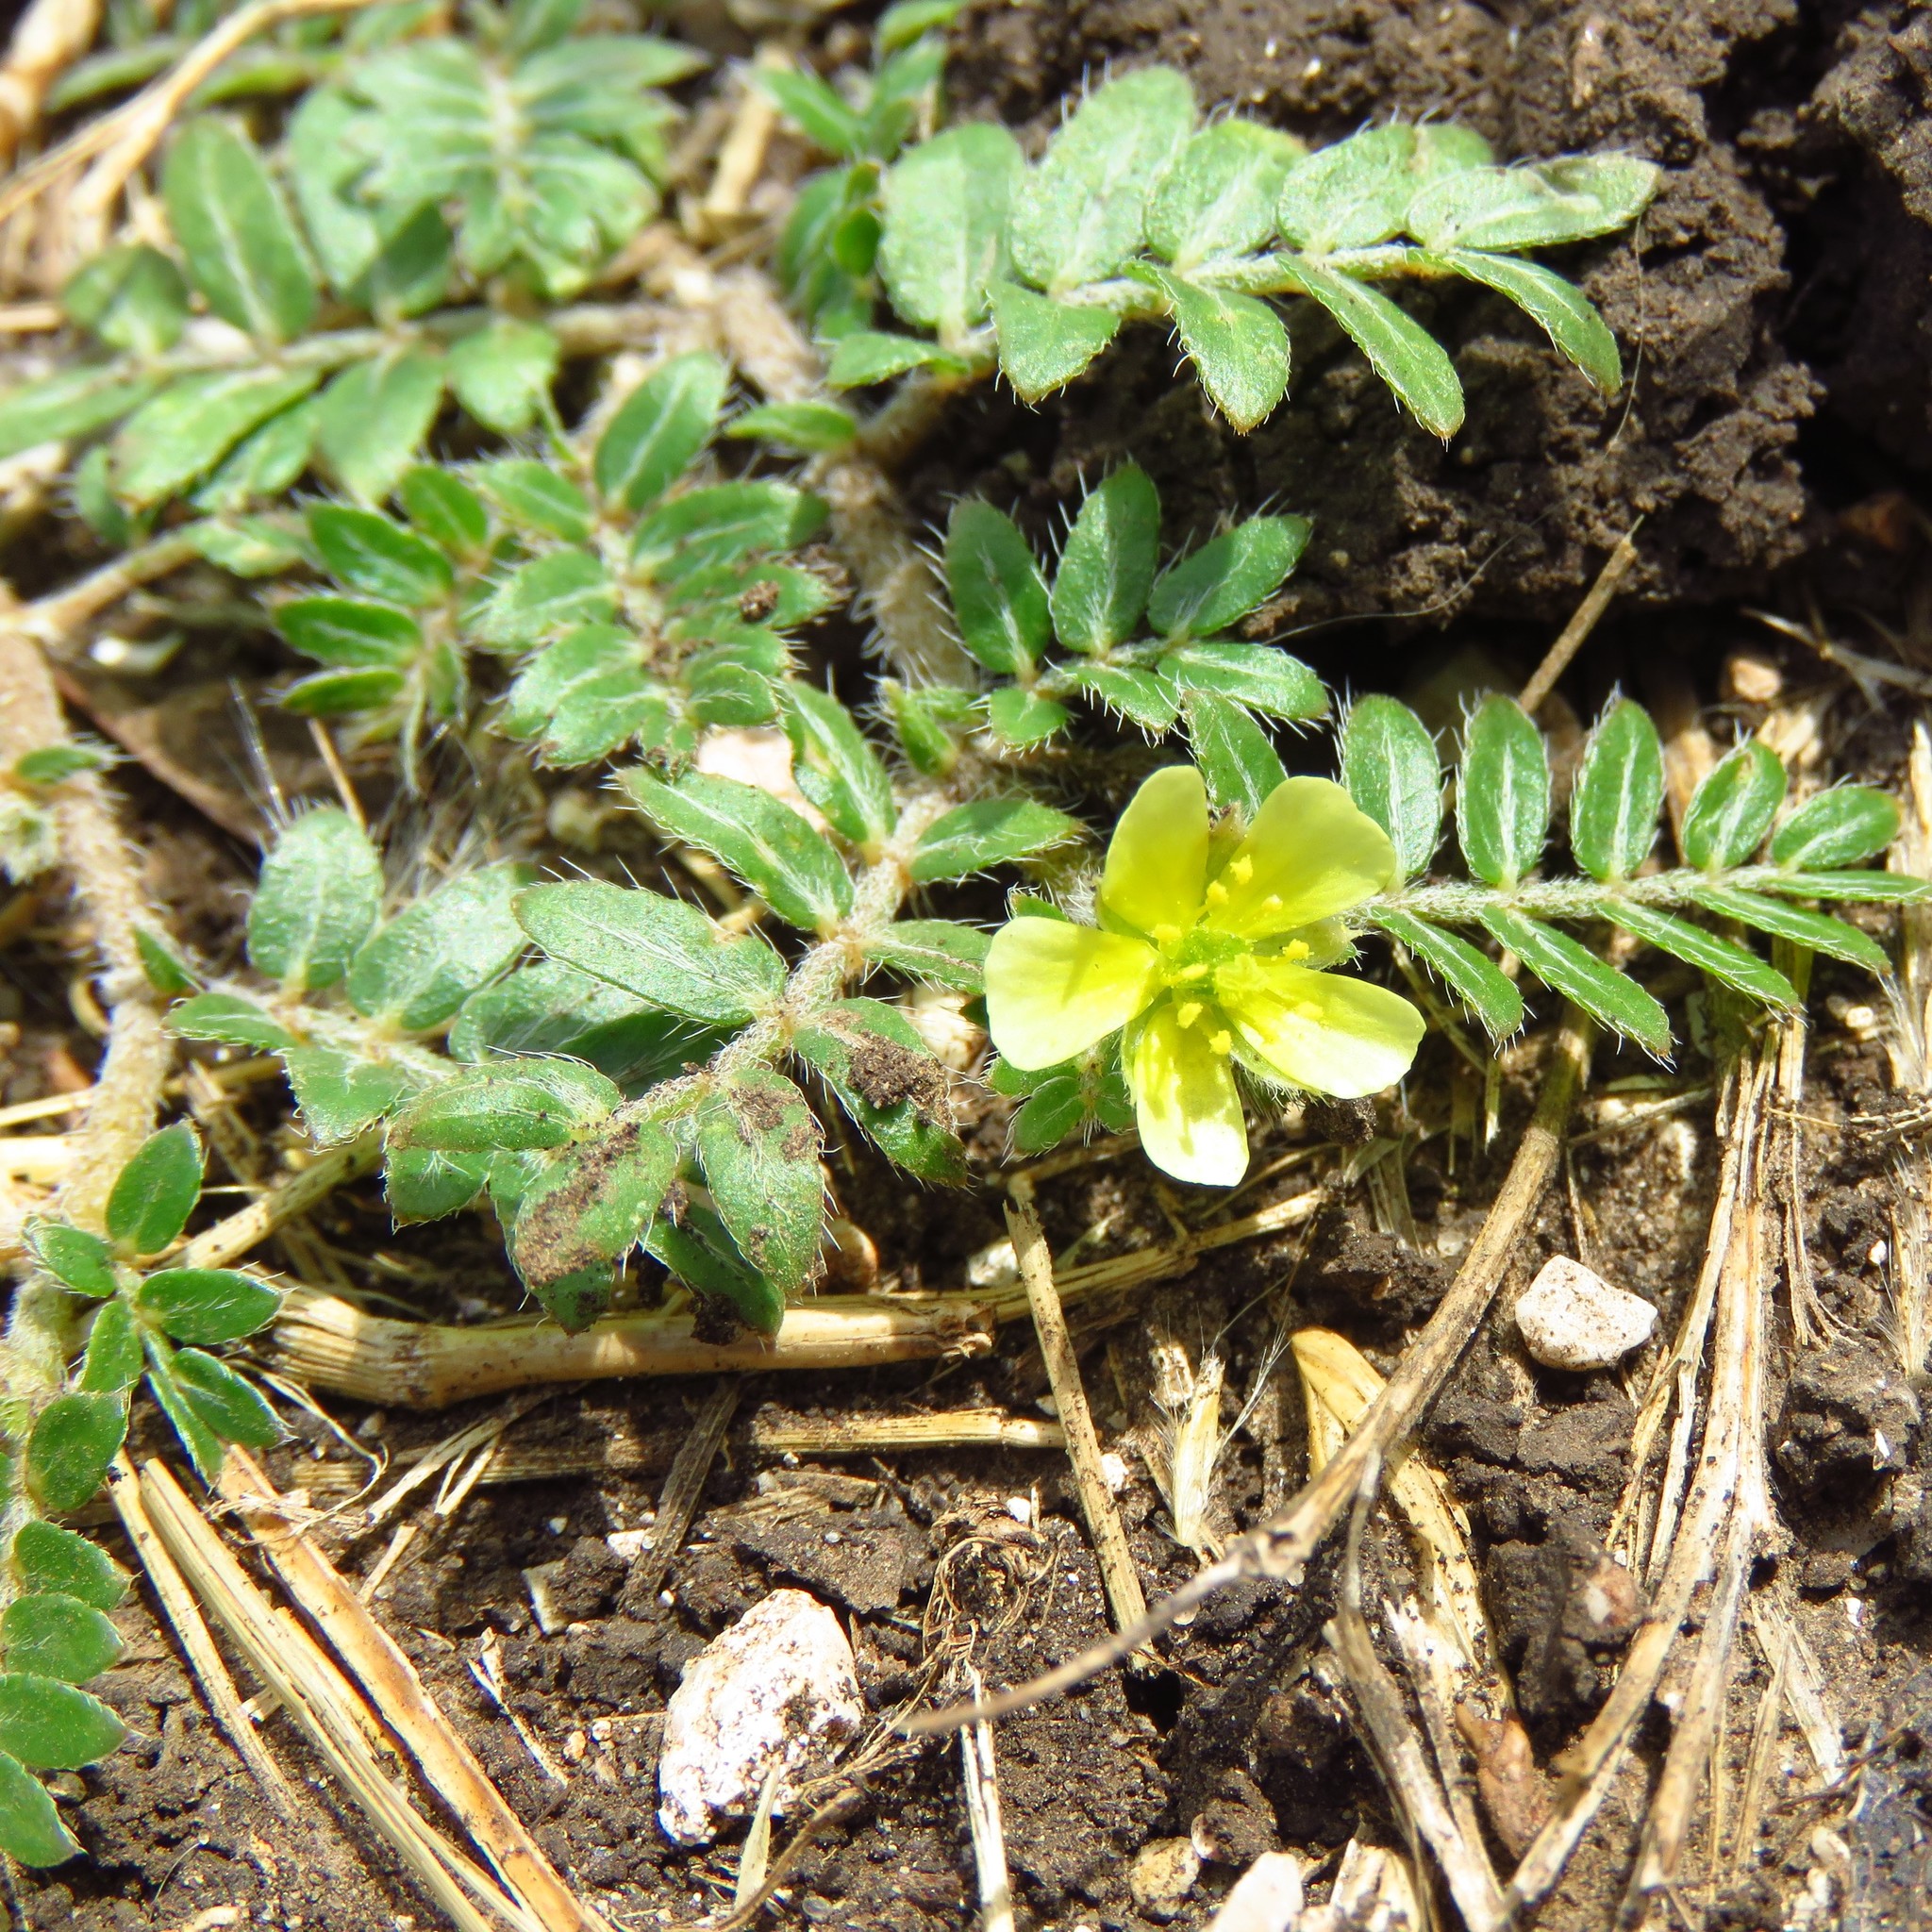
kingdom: Plantae
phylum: Tracheophyta
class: Magnoliopsida
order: Zygophyllales
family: Zygophyllaceae
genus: Tribulus
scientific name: Tribulus terrestris
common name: Puncturevine
